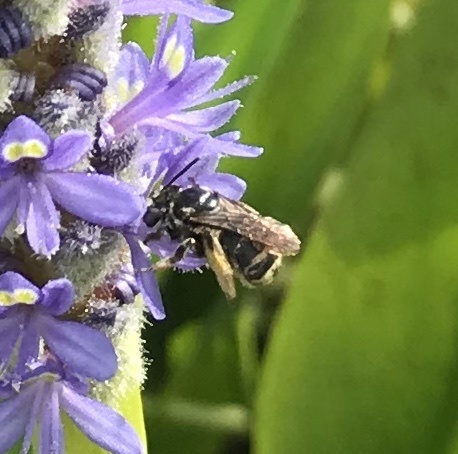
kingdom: Animalia
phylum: Arthropoda
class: Insecta
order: Hymenoptera
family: Apidae
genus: Florilegus
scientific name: Florilegus condignus
